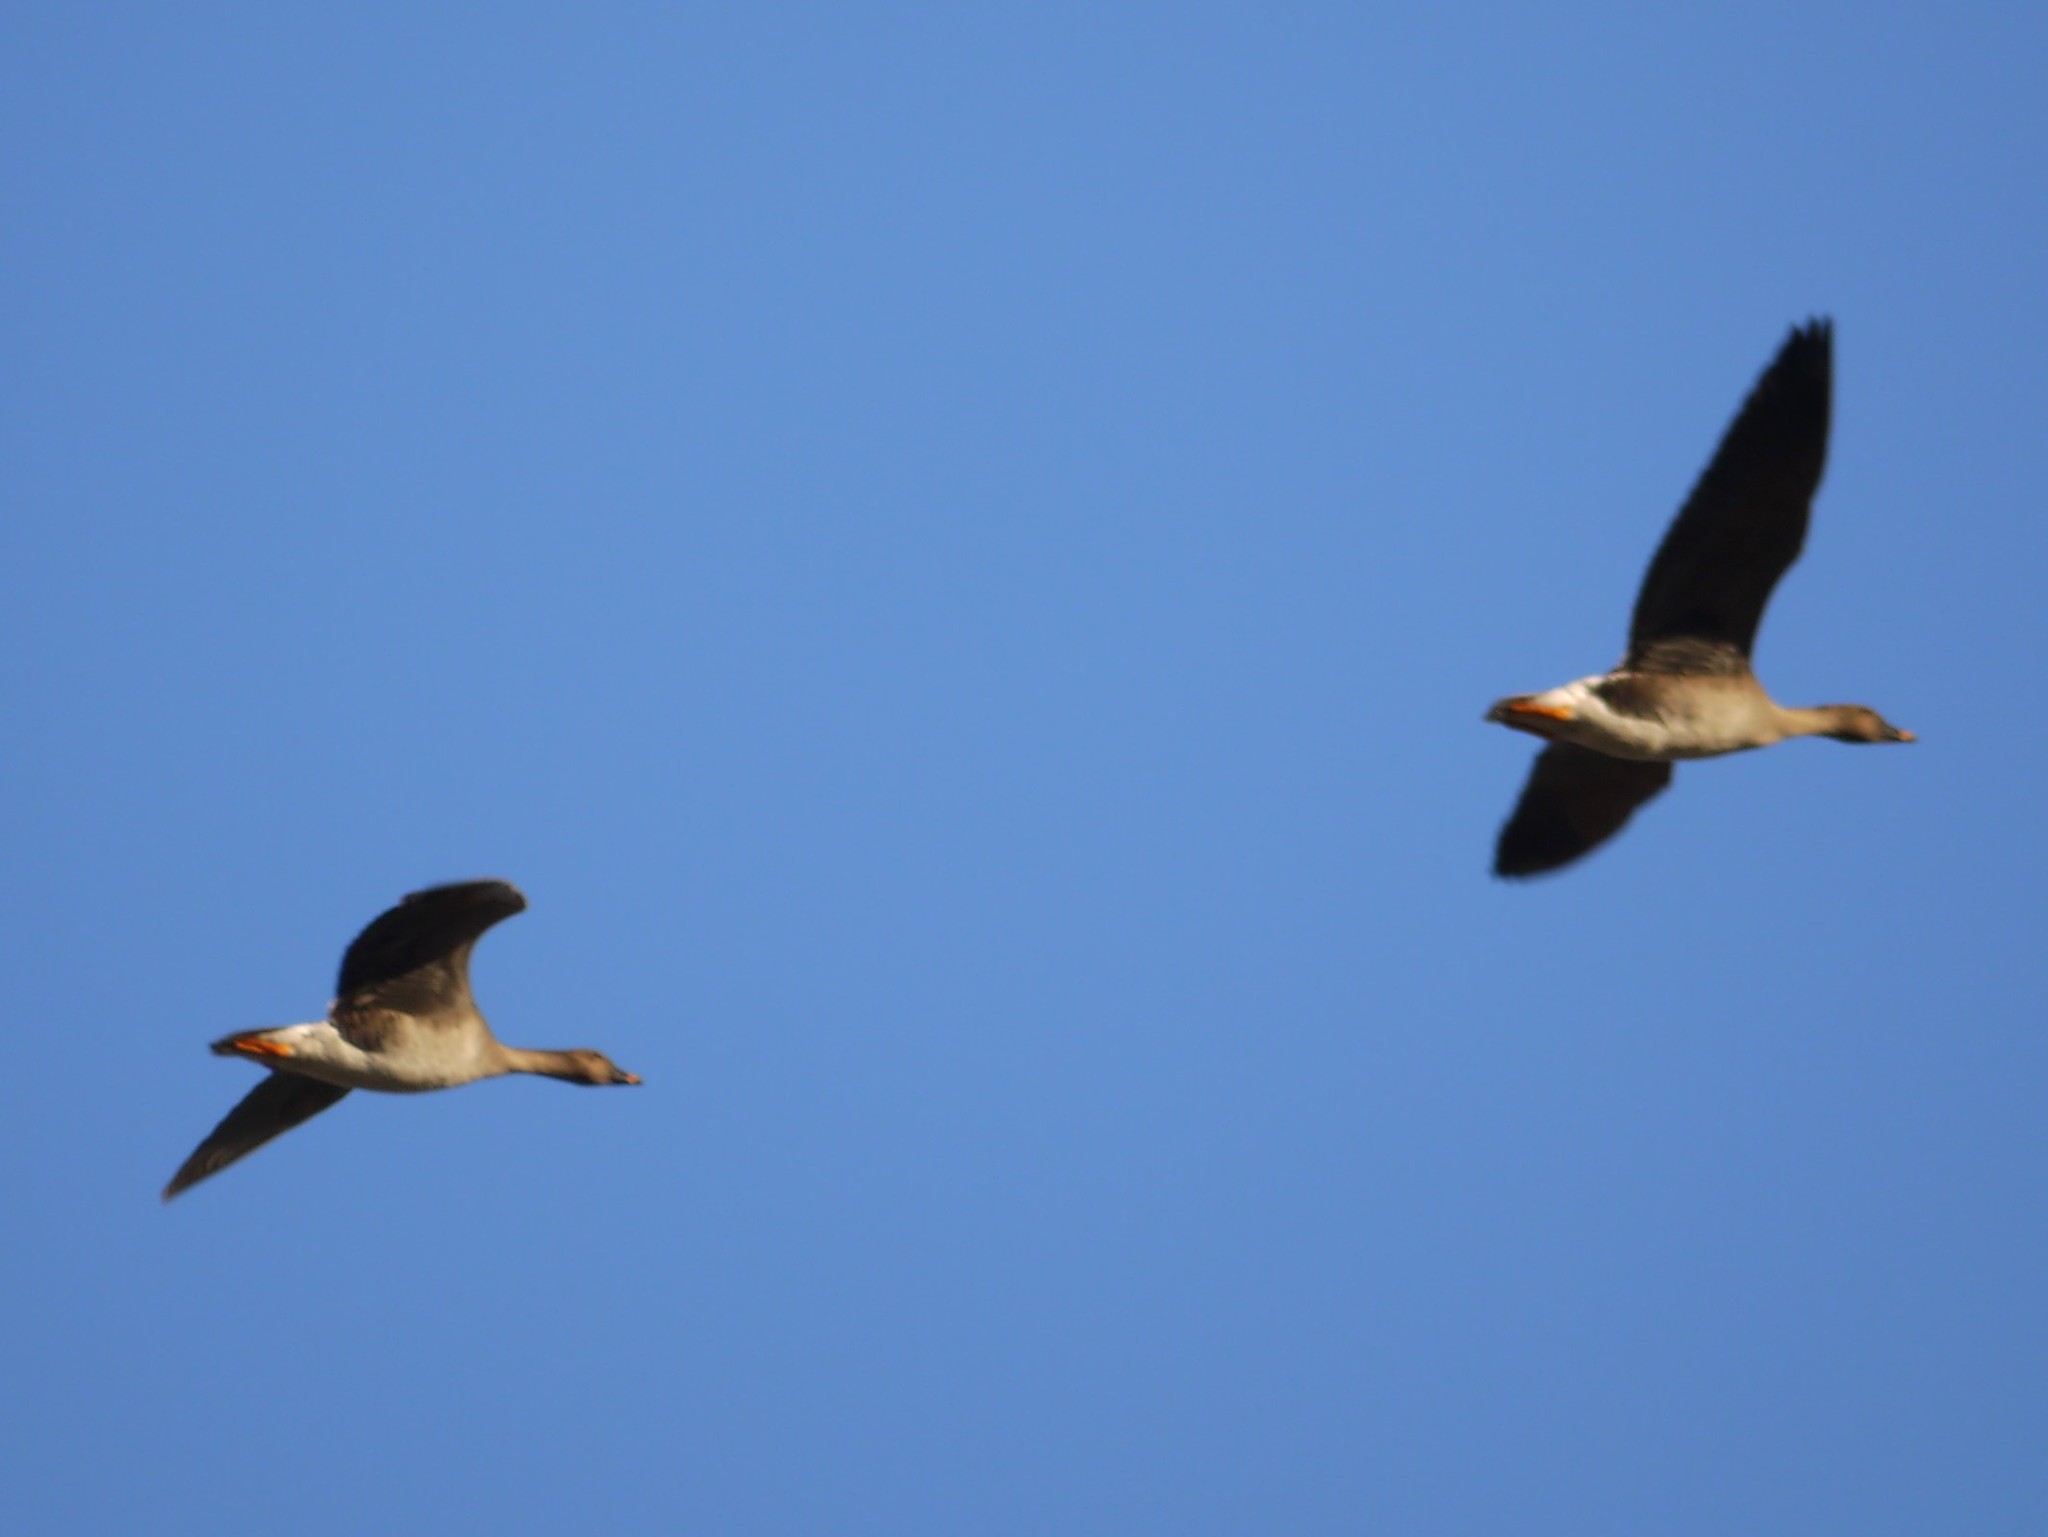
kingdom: Animalia
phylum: Chordata
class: Aves
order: Anseriformes
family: Anatidae
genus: Anser
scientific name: Anser serrirostris
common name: Tundra bean goose
